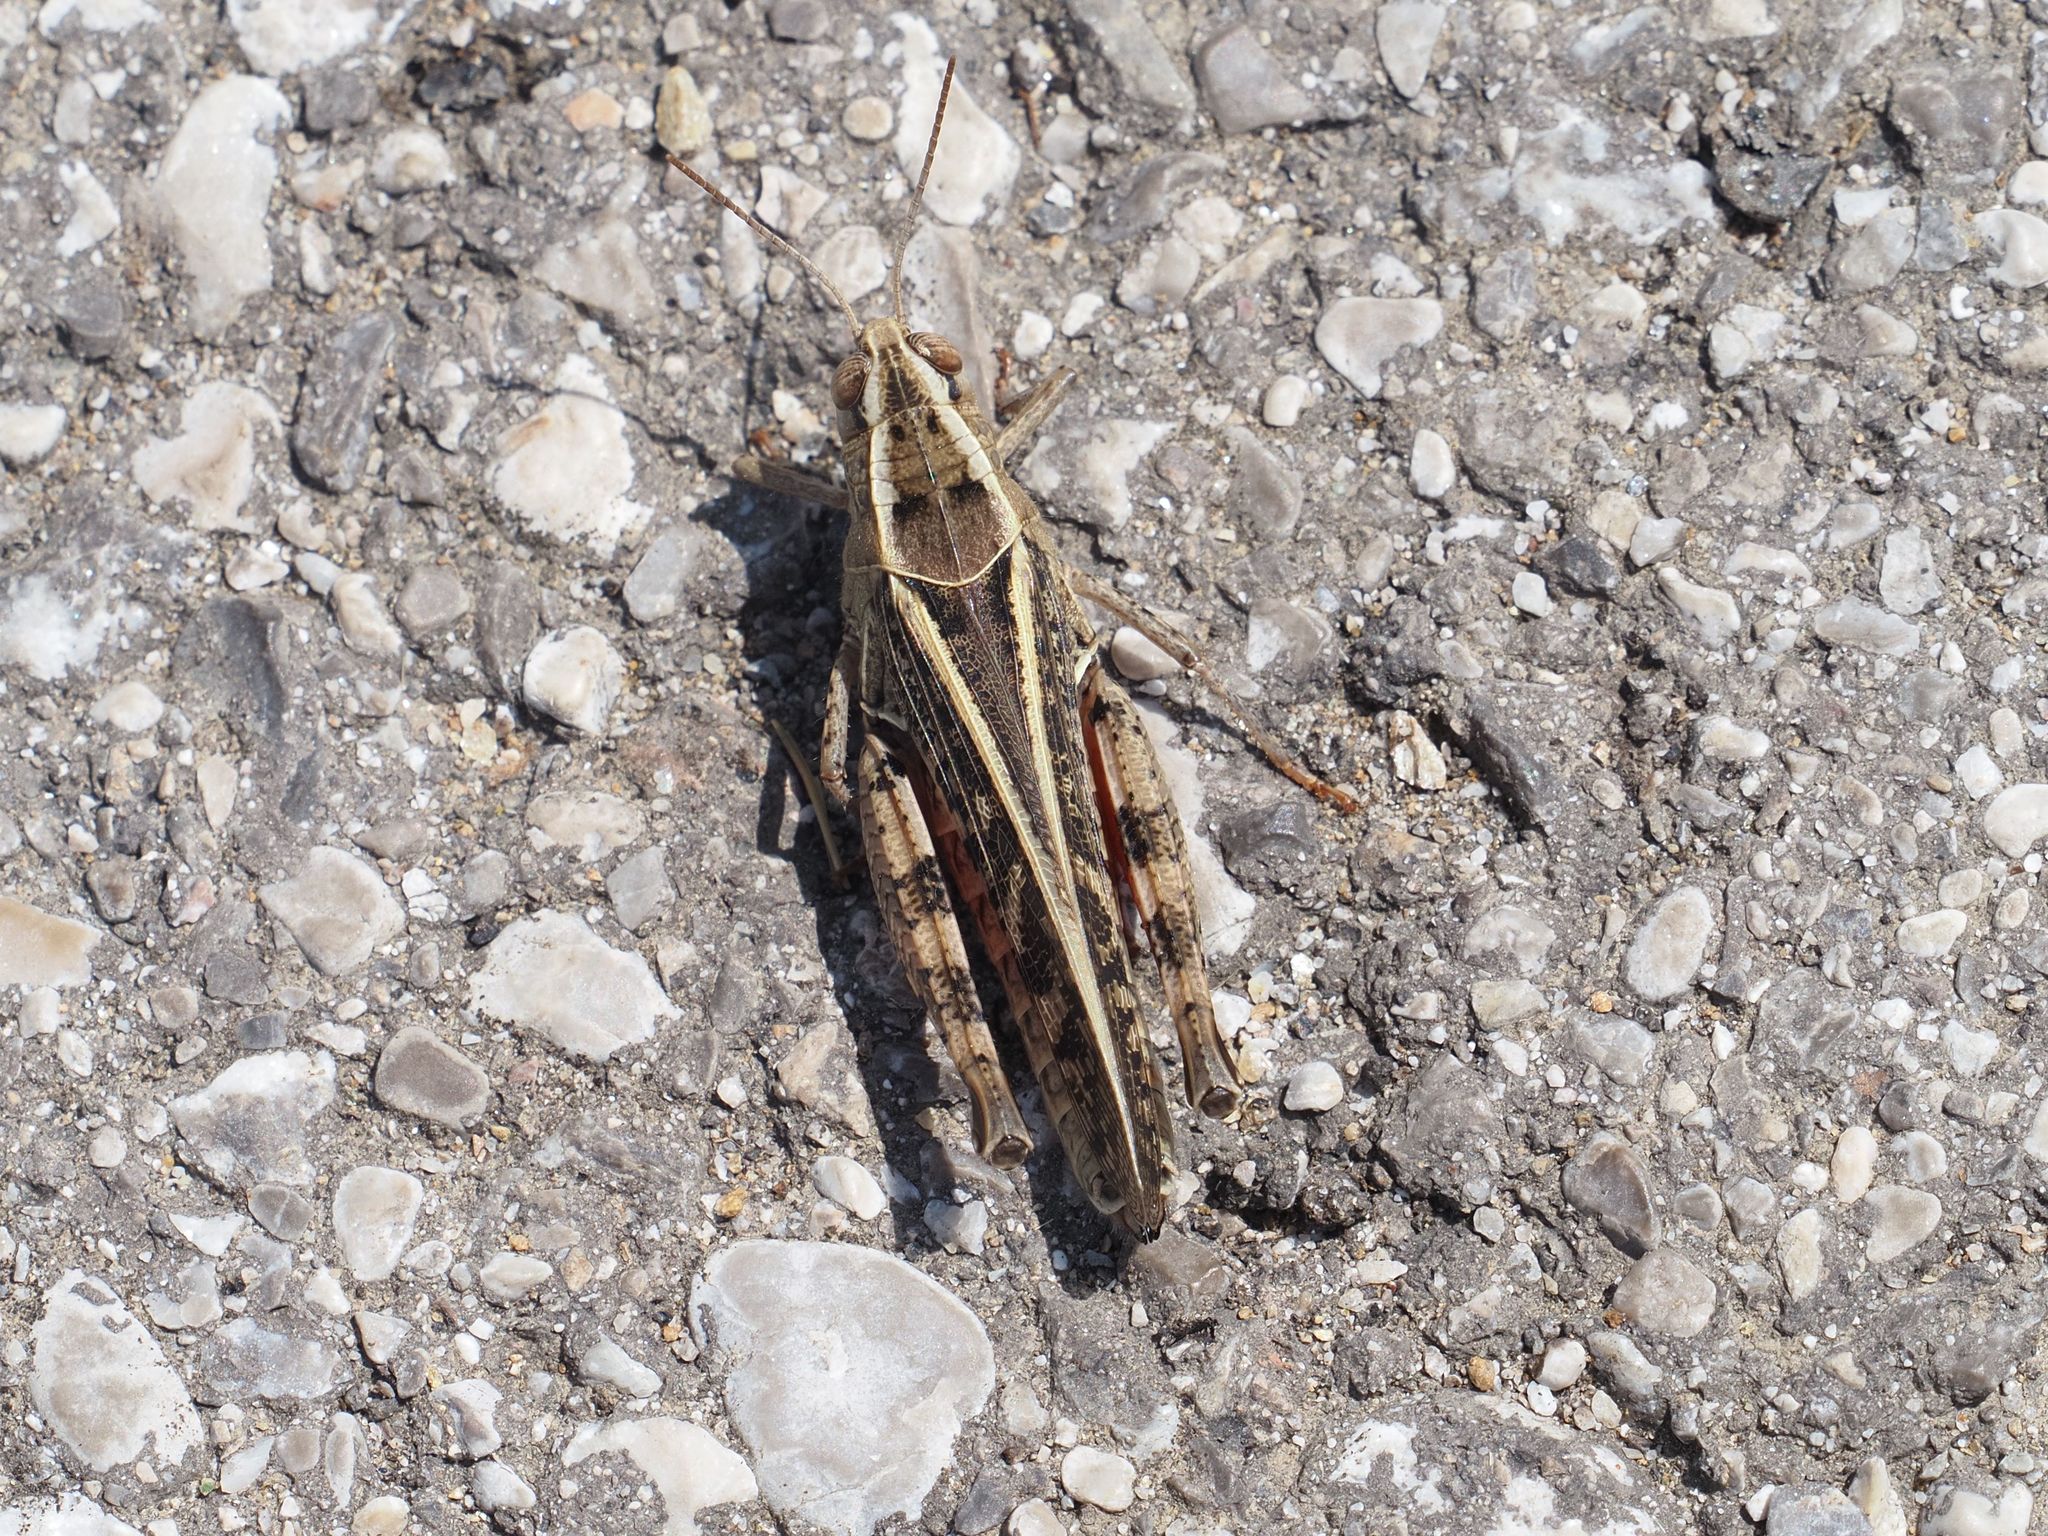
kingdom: Animalia
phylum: Arthropoda
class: Insecta
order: Orthoptera
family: Acrididae
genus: Calliptamus
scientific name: Calliptamus italicus
